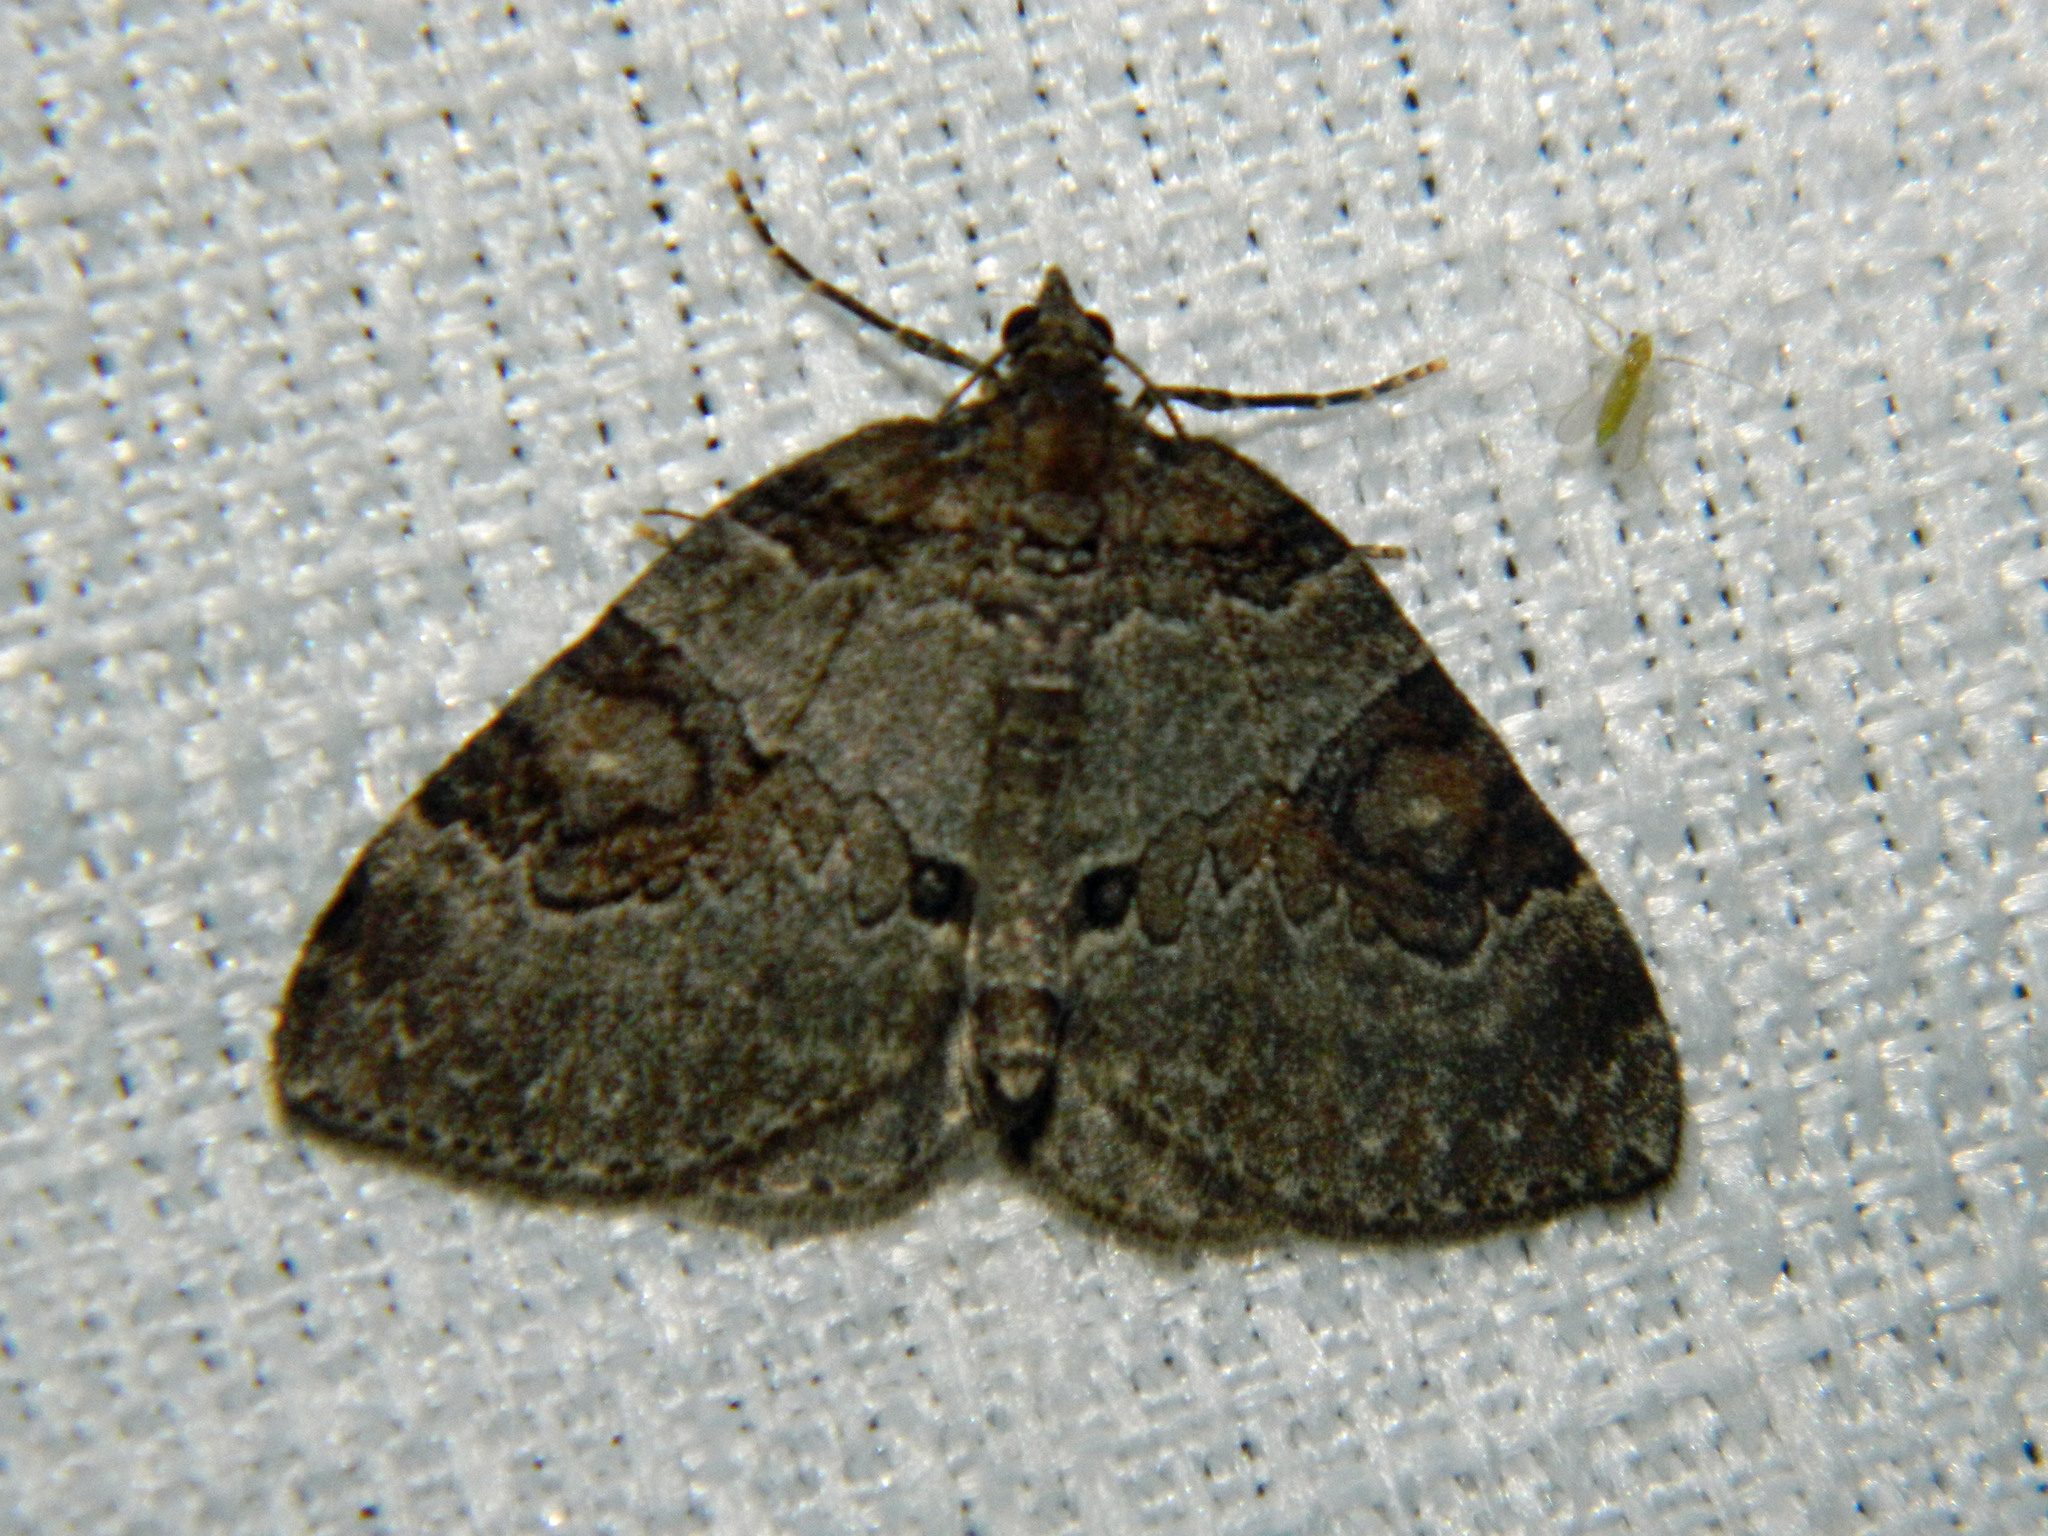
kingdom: Animalia
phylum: Arthropoda
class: Insecta
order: Lepidoptera
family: Geometridae
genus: Plemyria
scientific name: Plemyria georgii
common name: George's carpet moth
